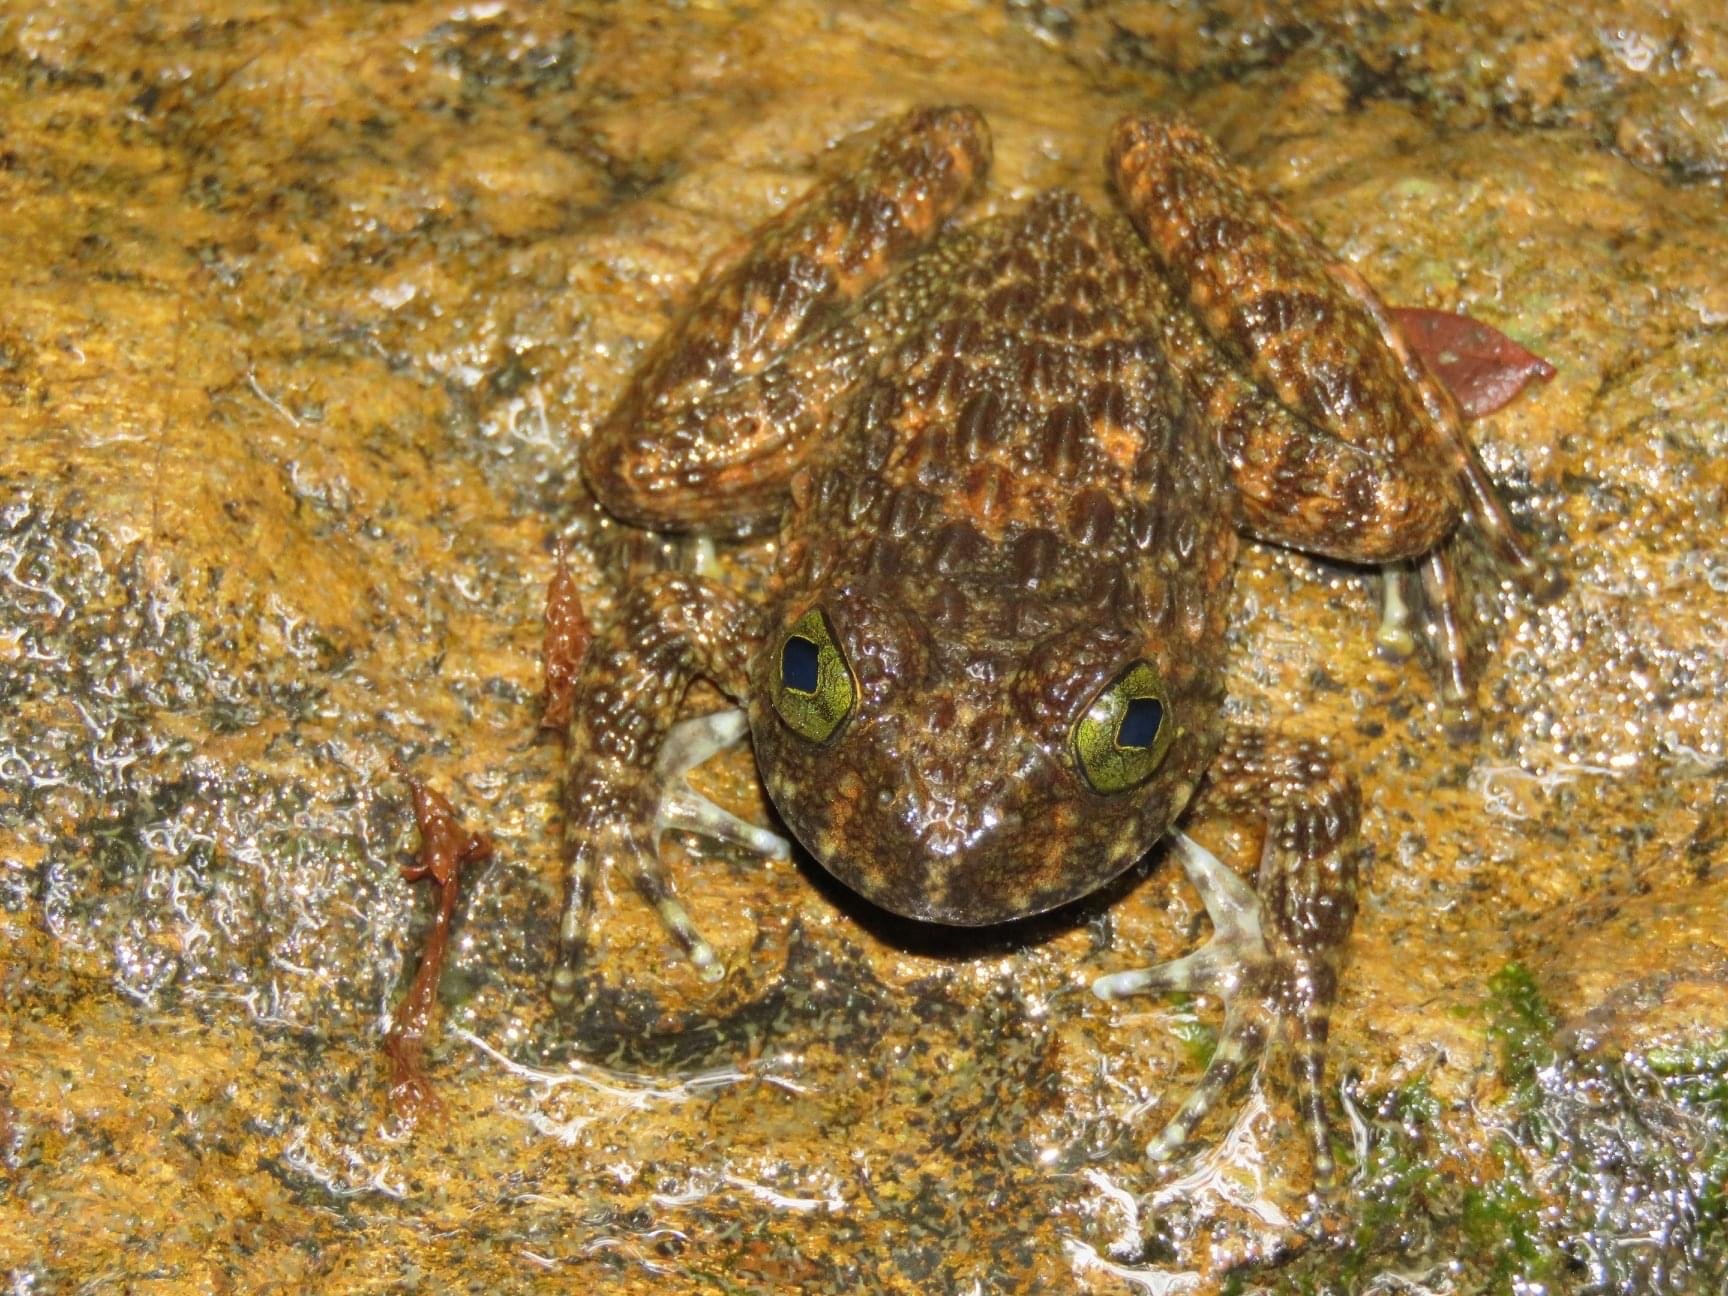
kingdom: Animalia
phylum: Chordata
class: Amphibia
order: Anura
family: Dicroglossidae
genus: Quasipaa
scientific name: Quasipaa exilispinosa
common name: Hong kong paa frog
